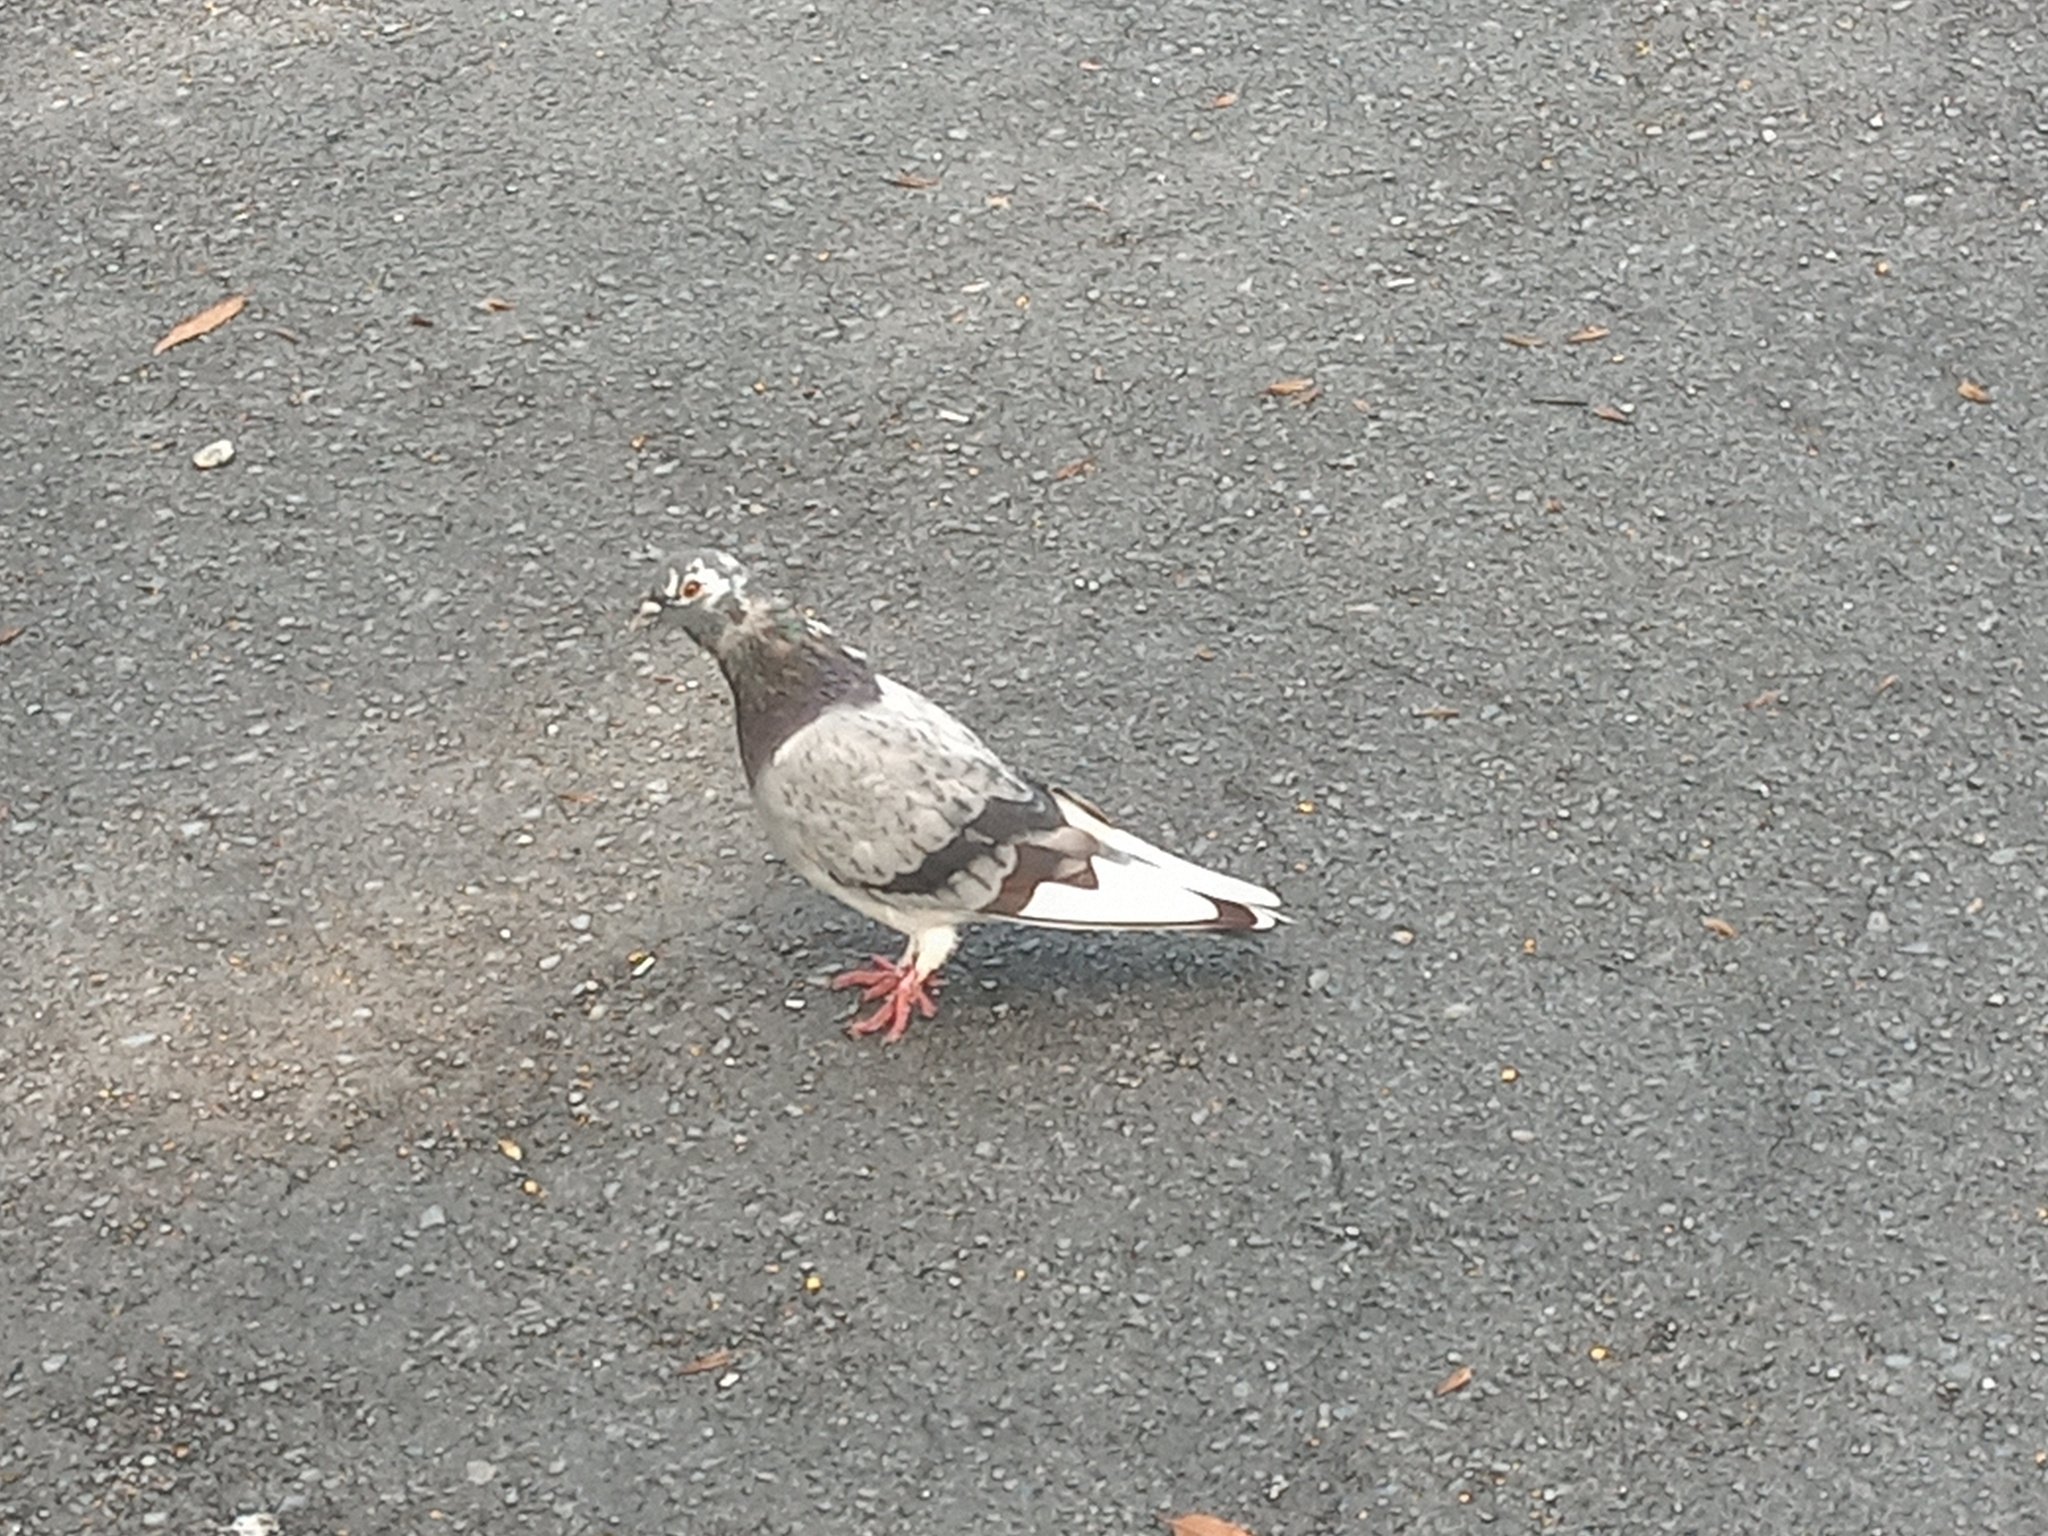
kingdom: Animalia
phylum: Chordata
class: Aves
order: Columbiformes
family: Columbidae
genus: Columba
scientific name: Columba livia
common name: Rock pigeon
